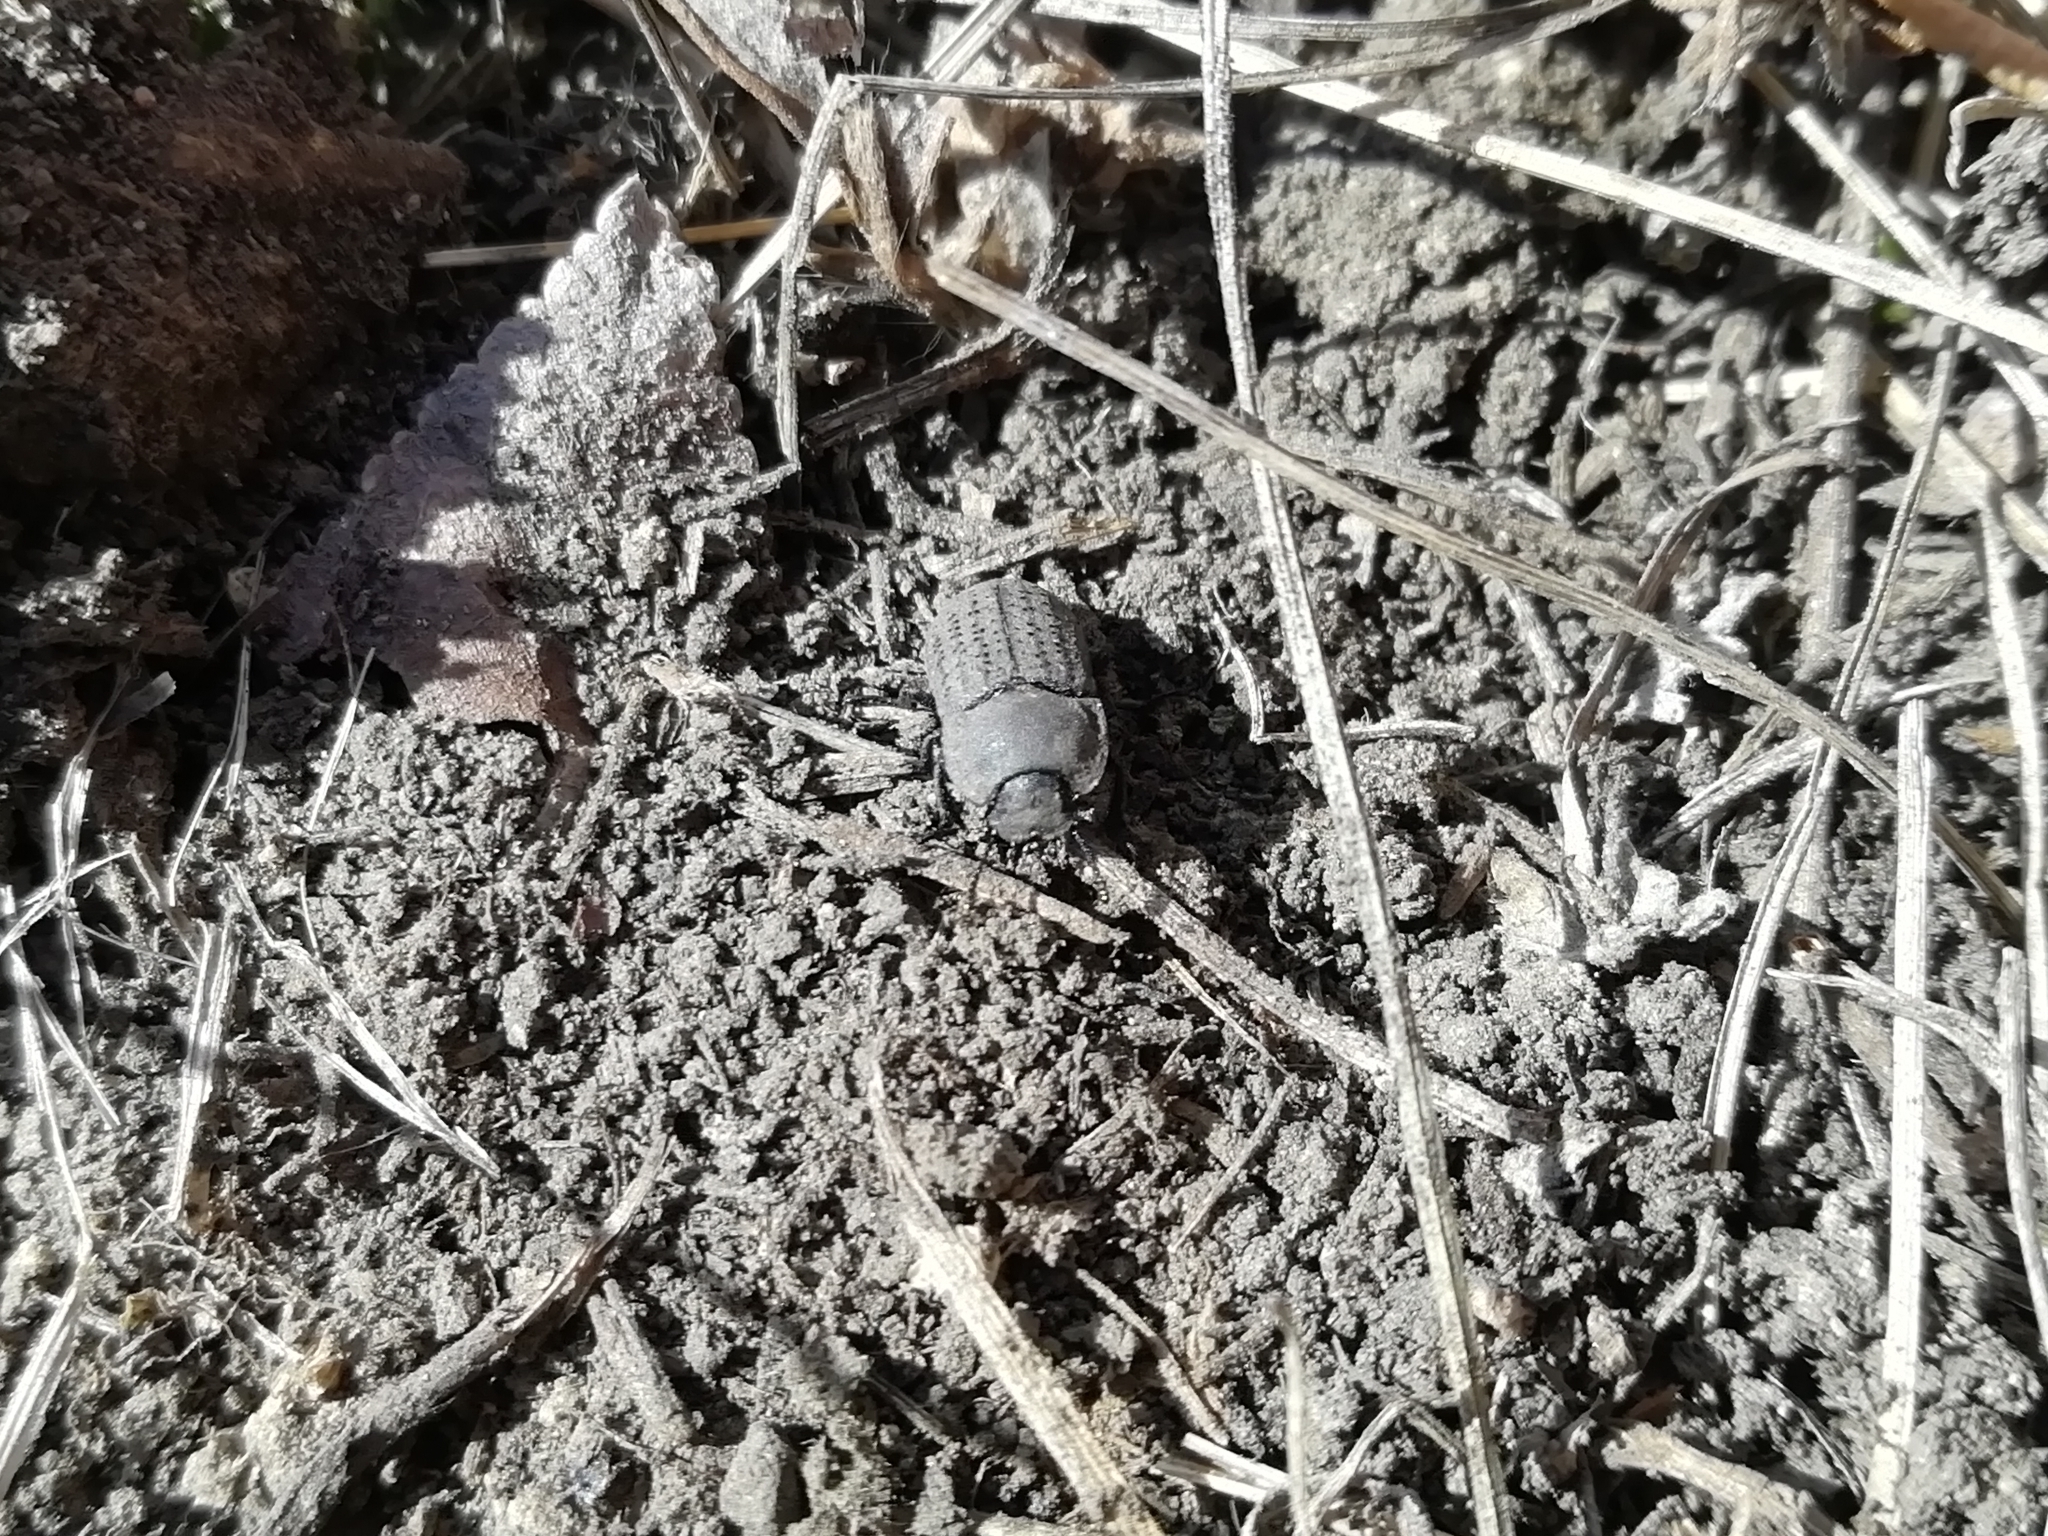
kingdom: Animalia
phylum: Arthropoda
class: Insecta
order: Coleoptera
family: Tenebrionidae
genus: Opatrum
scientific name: Opatrum sabulosum
